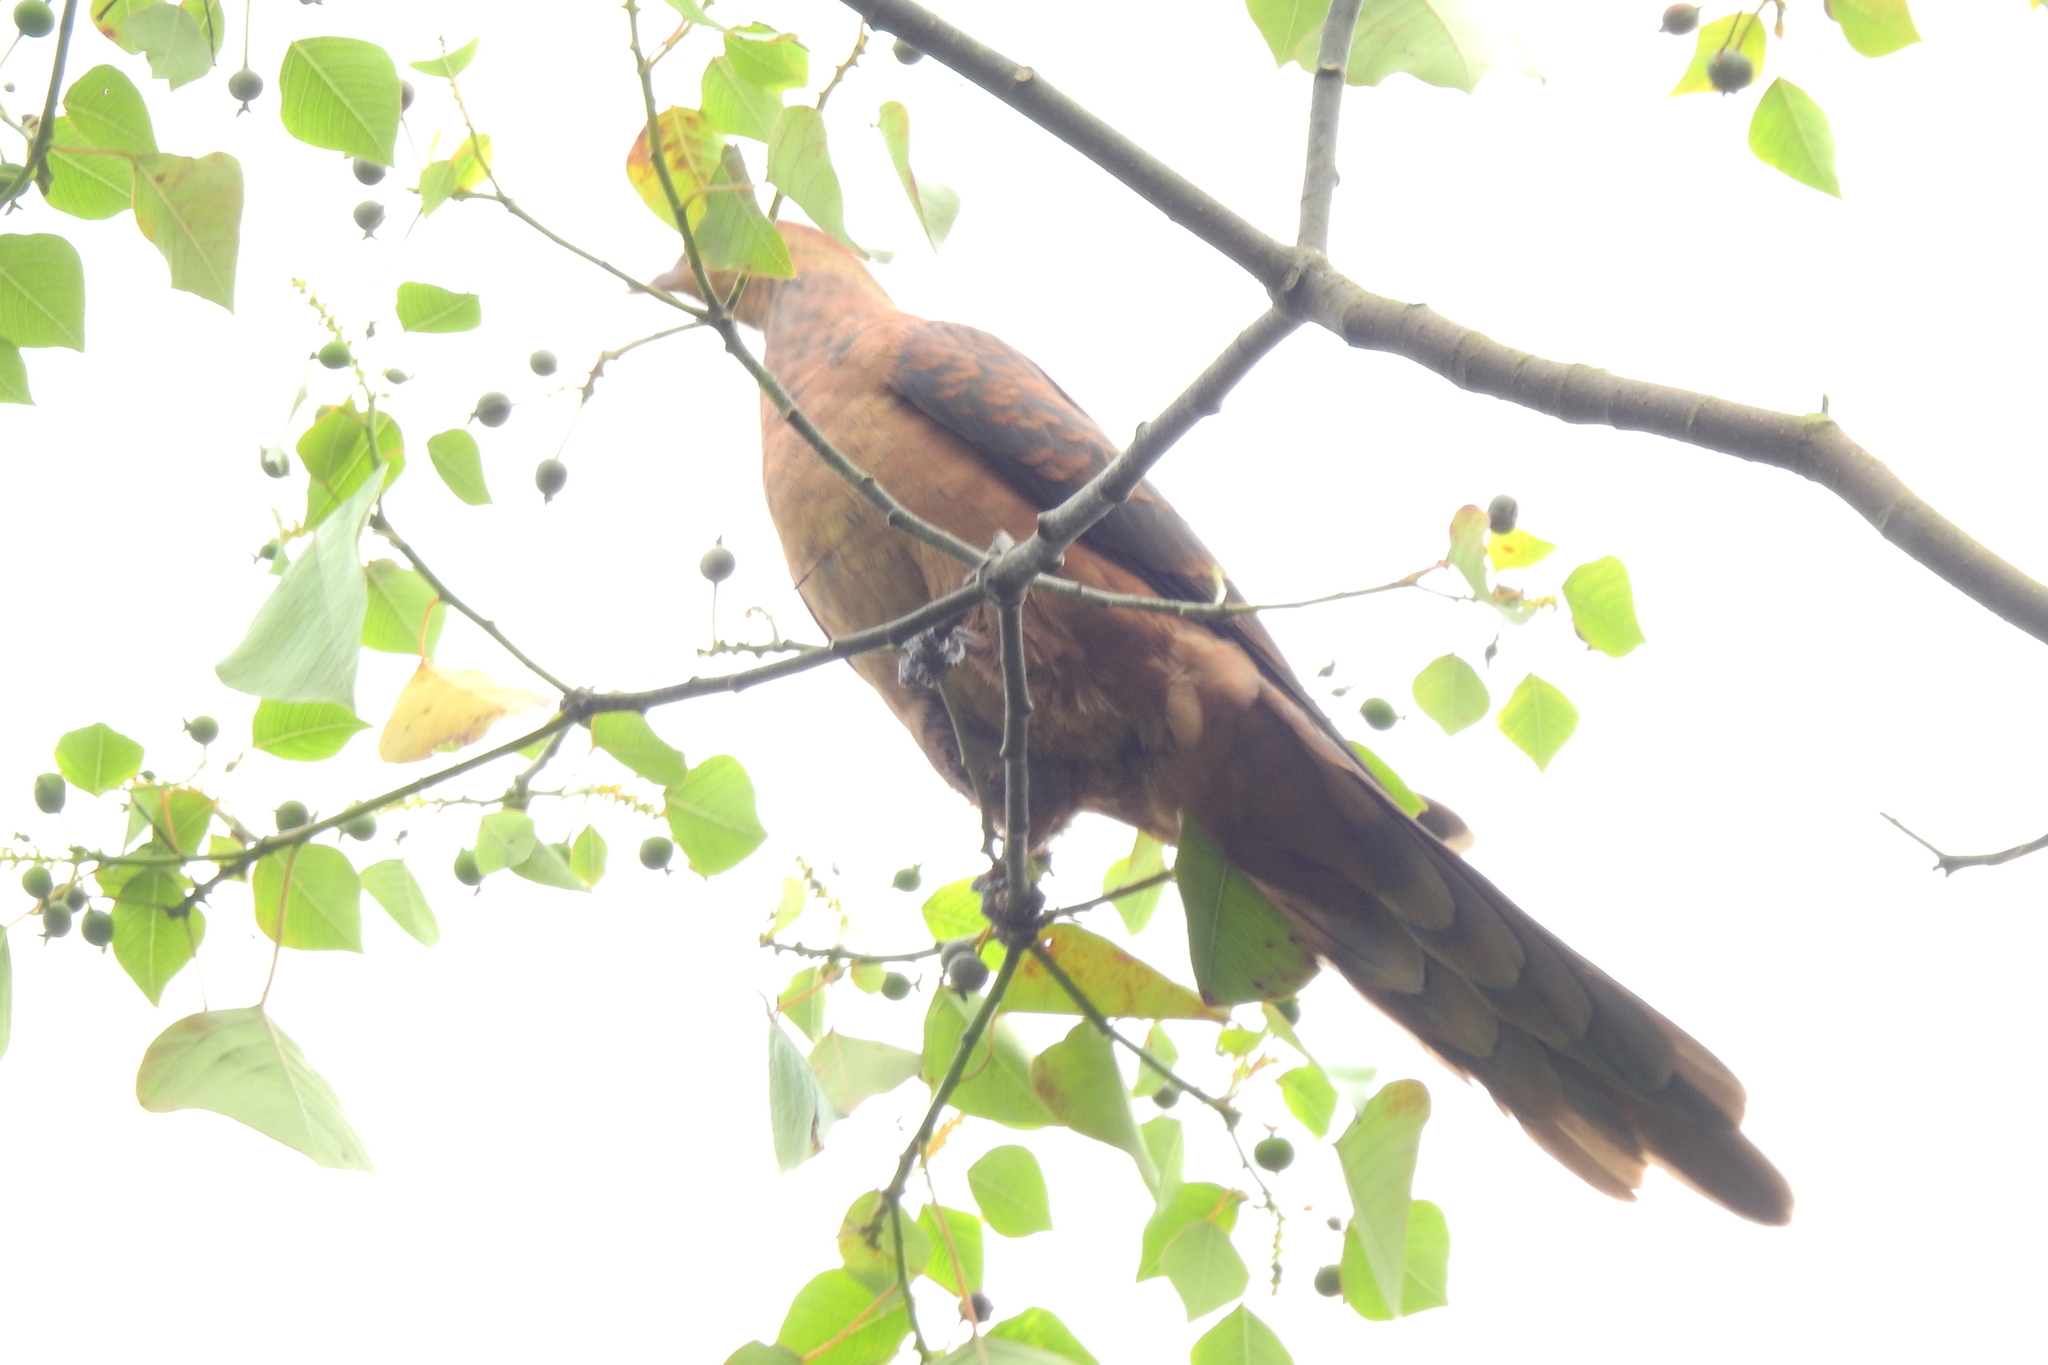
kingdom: Animalia
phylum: Chordata
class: Aves
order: Columbiformes
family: Columbidae
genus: Macropygia
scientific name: Macropygia emiliana
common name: Ruddy cuckoo-dove
